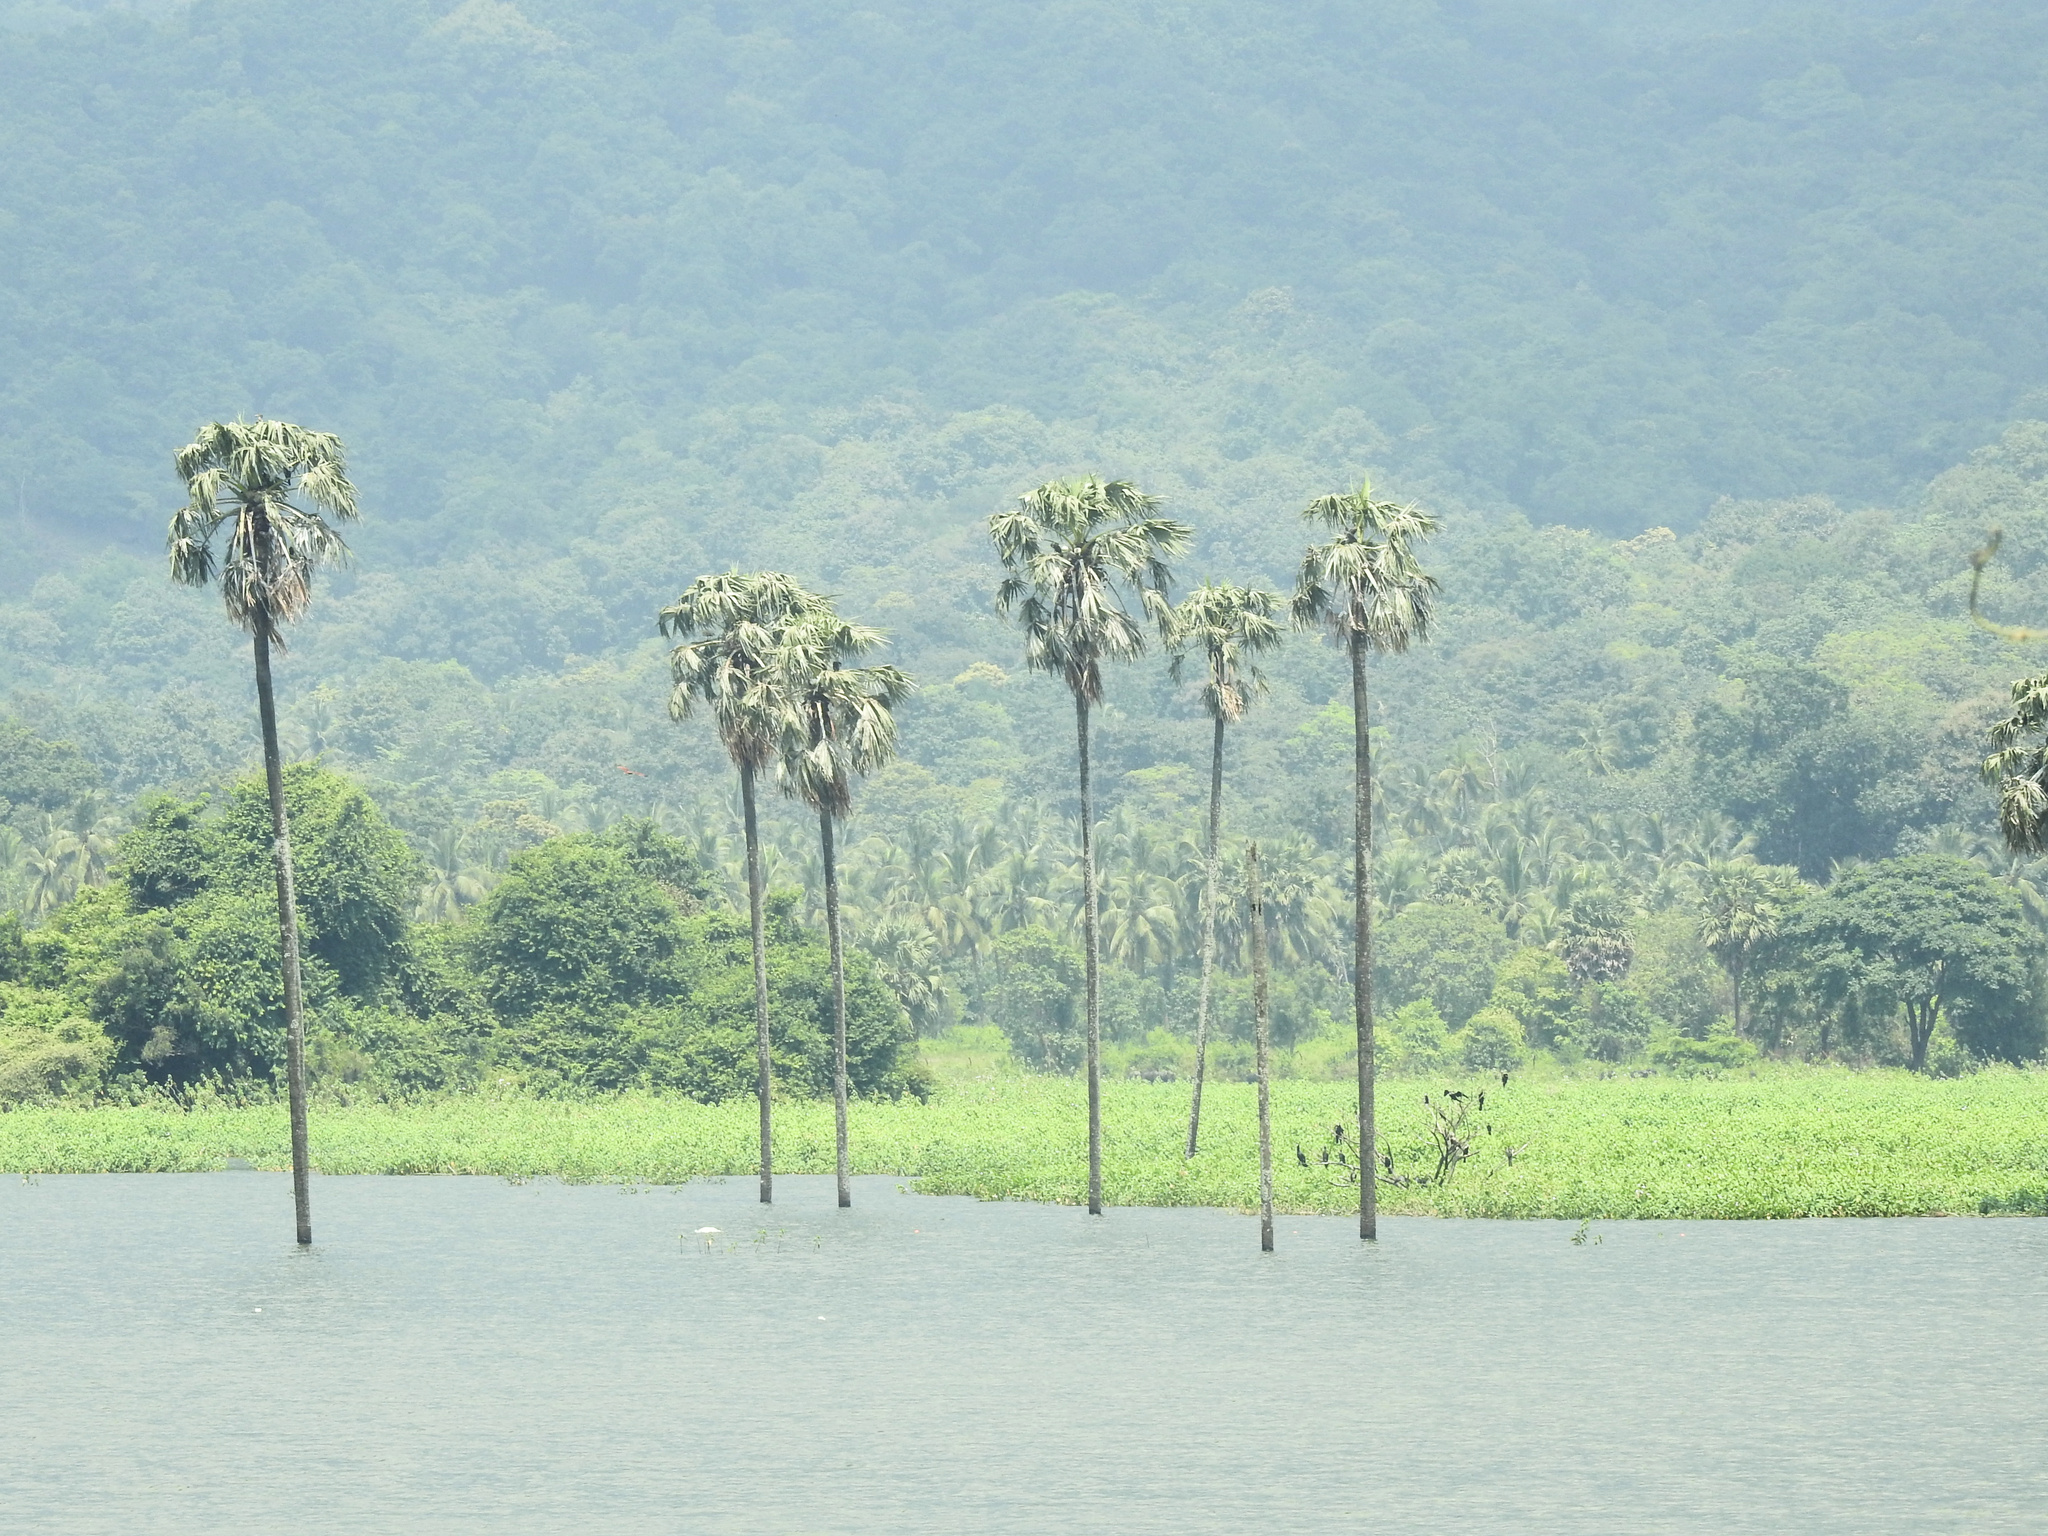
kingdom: Plantae
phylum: Tracheophyta
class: Liliopsida
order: Arecales
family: Arecaceae
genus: Borassus
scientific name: Borassus flabellifer
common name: Palmyra palm
